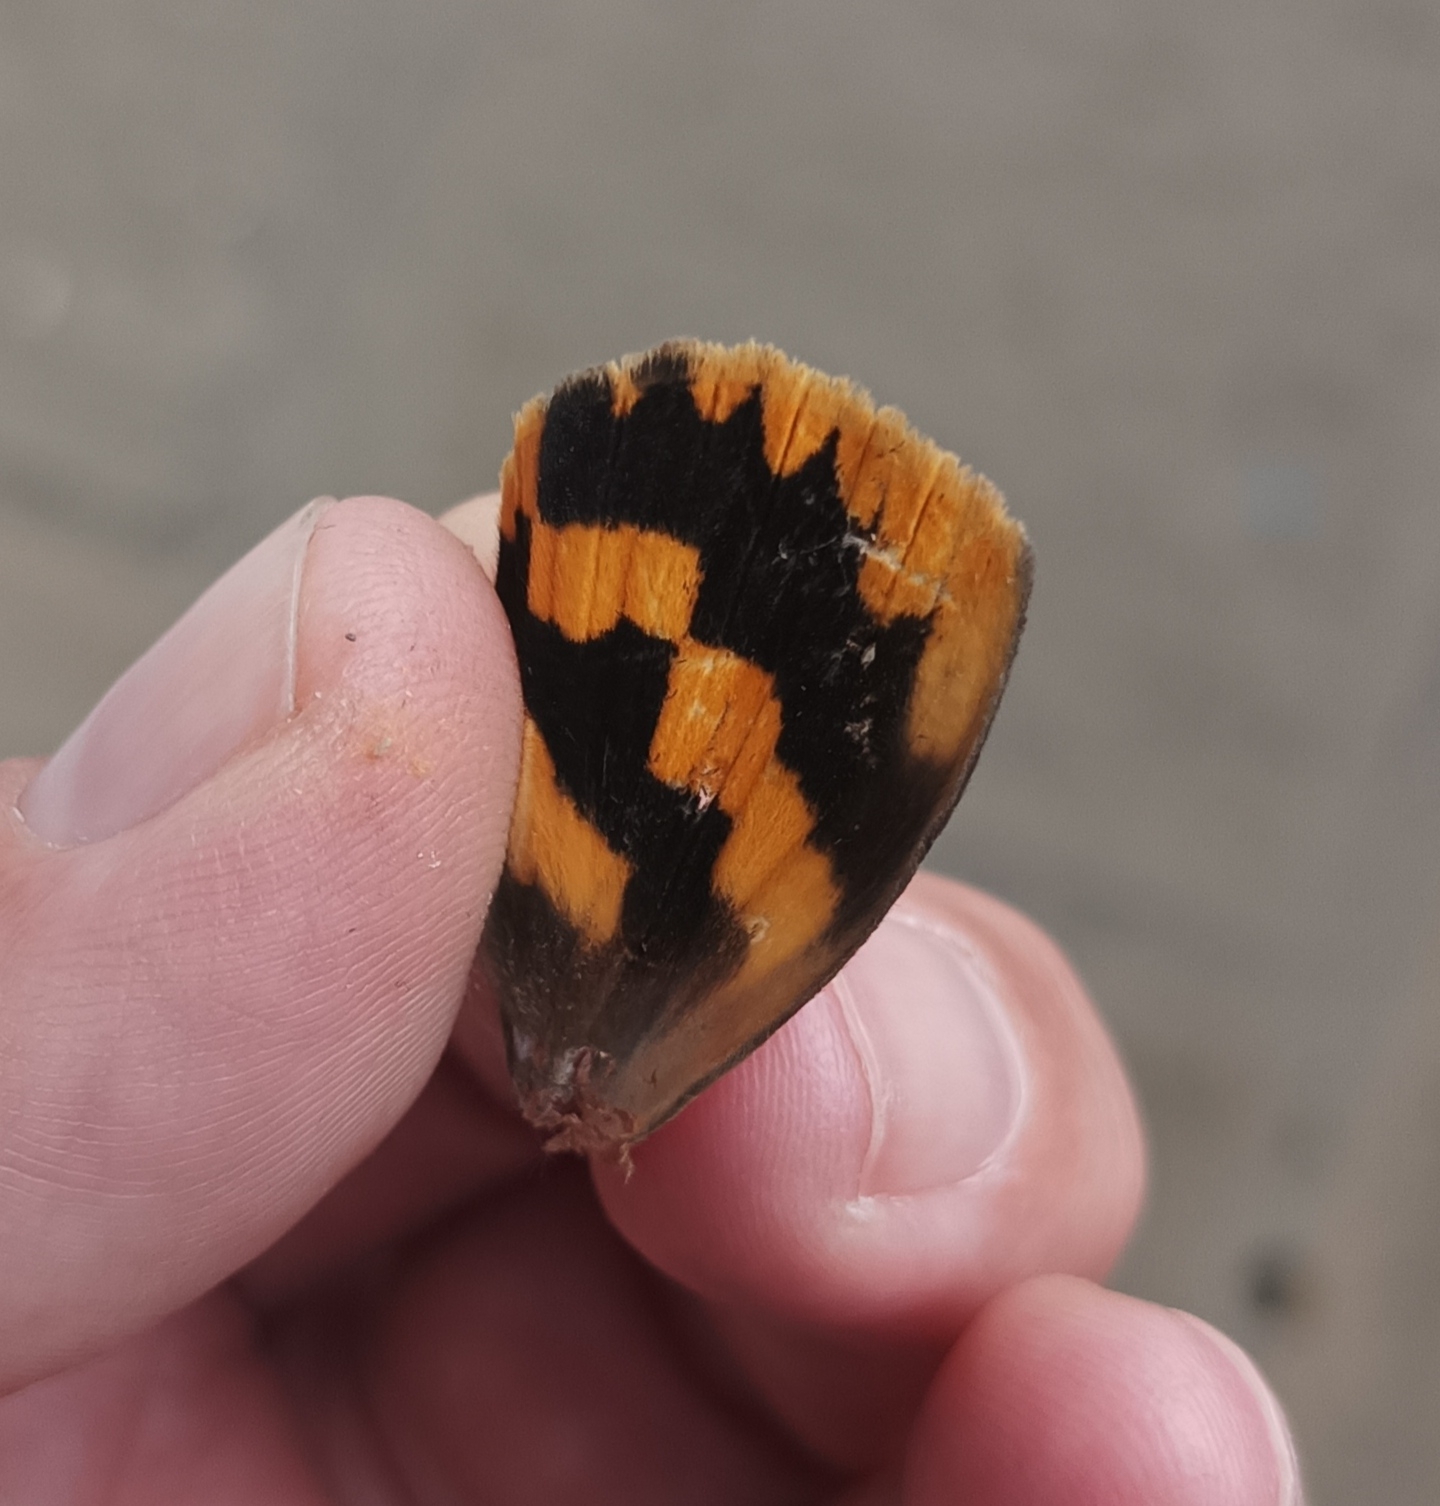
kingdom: Animalia
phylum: Arthropoda
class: Insecta
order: Lepidoptera
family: Erebidae
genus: Eudocima
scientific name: Eudocima procus
